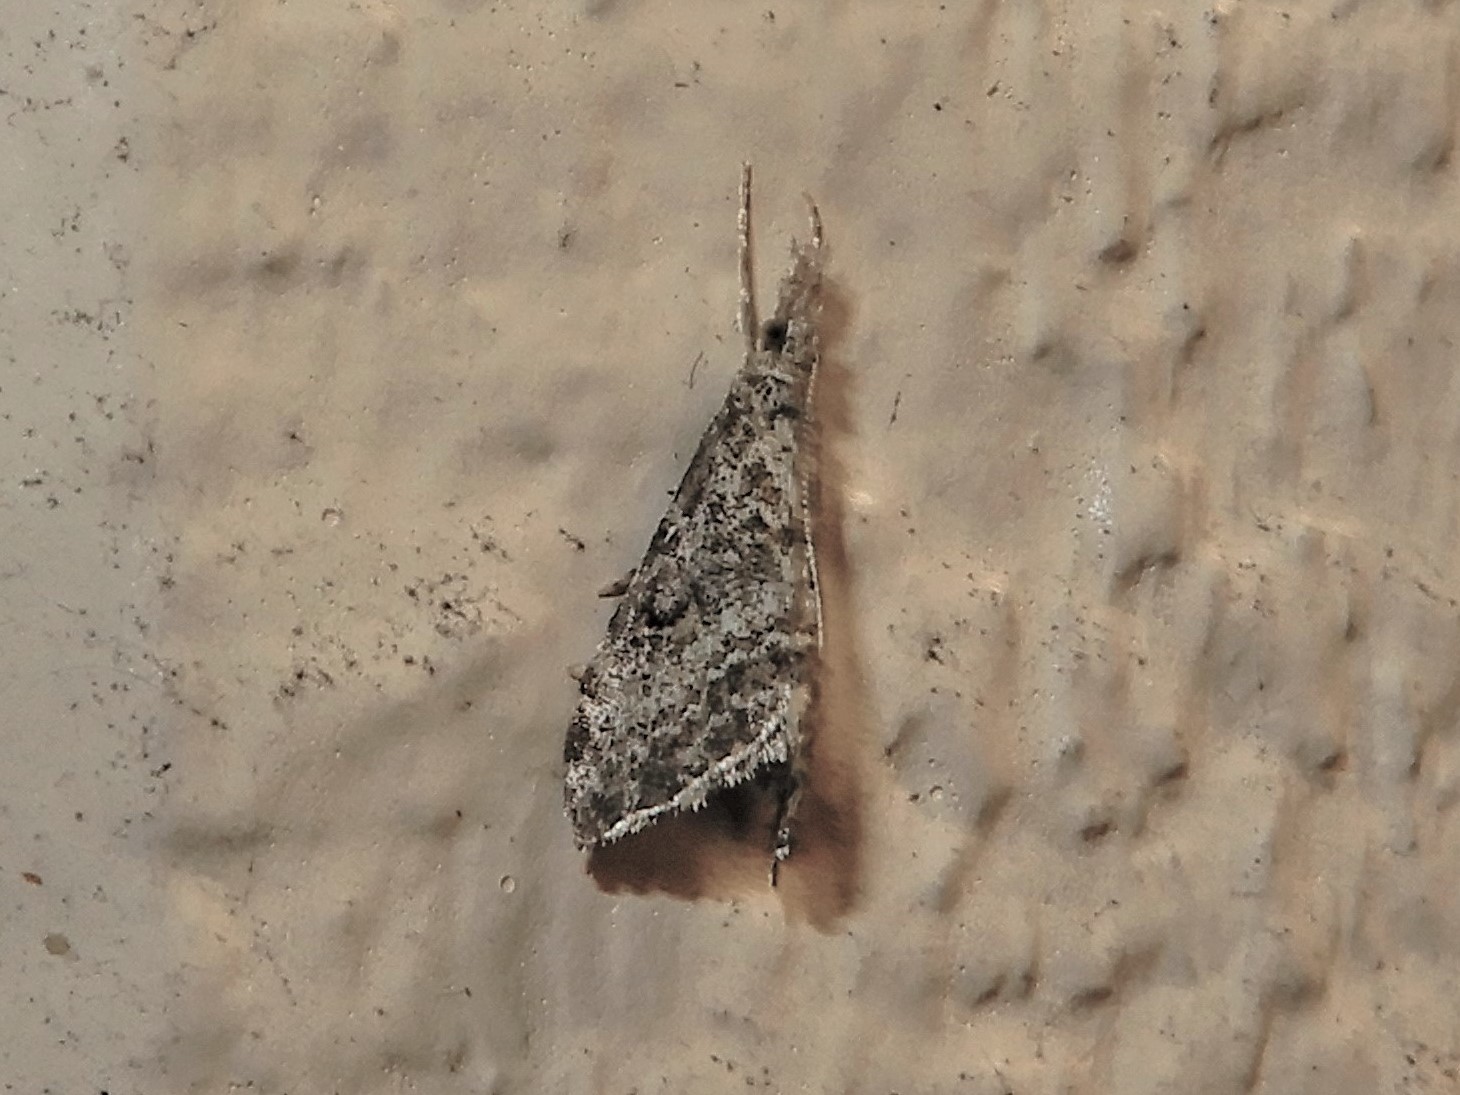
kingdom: Animalia
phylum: Arthropoda
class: Insecta
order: Lepidoptera
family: Crambidae
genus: Glaucocharis
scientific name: Glaucocharis elaina
